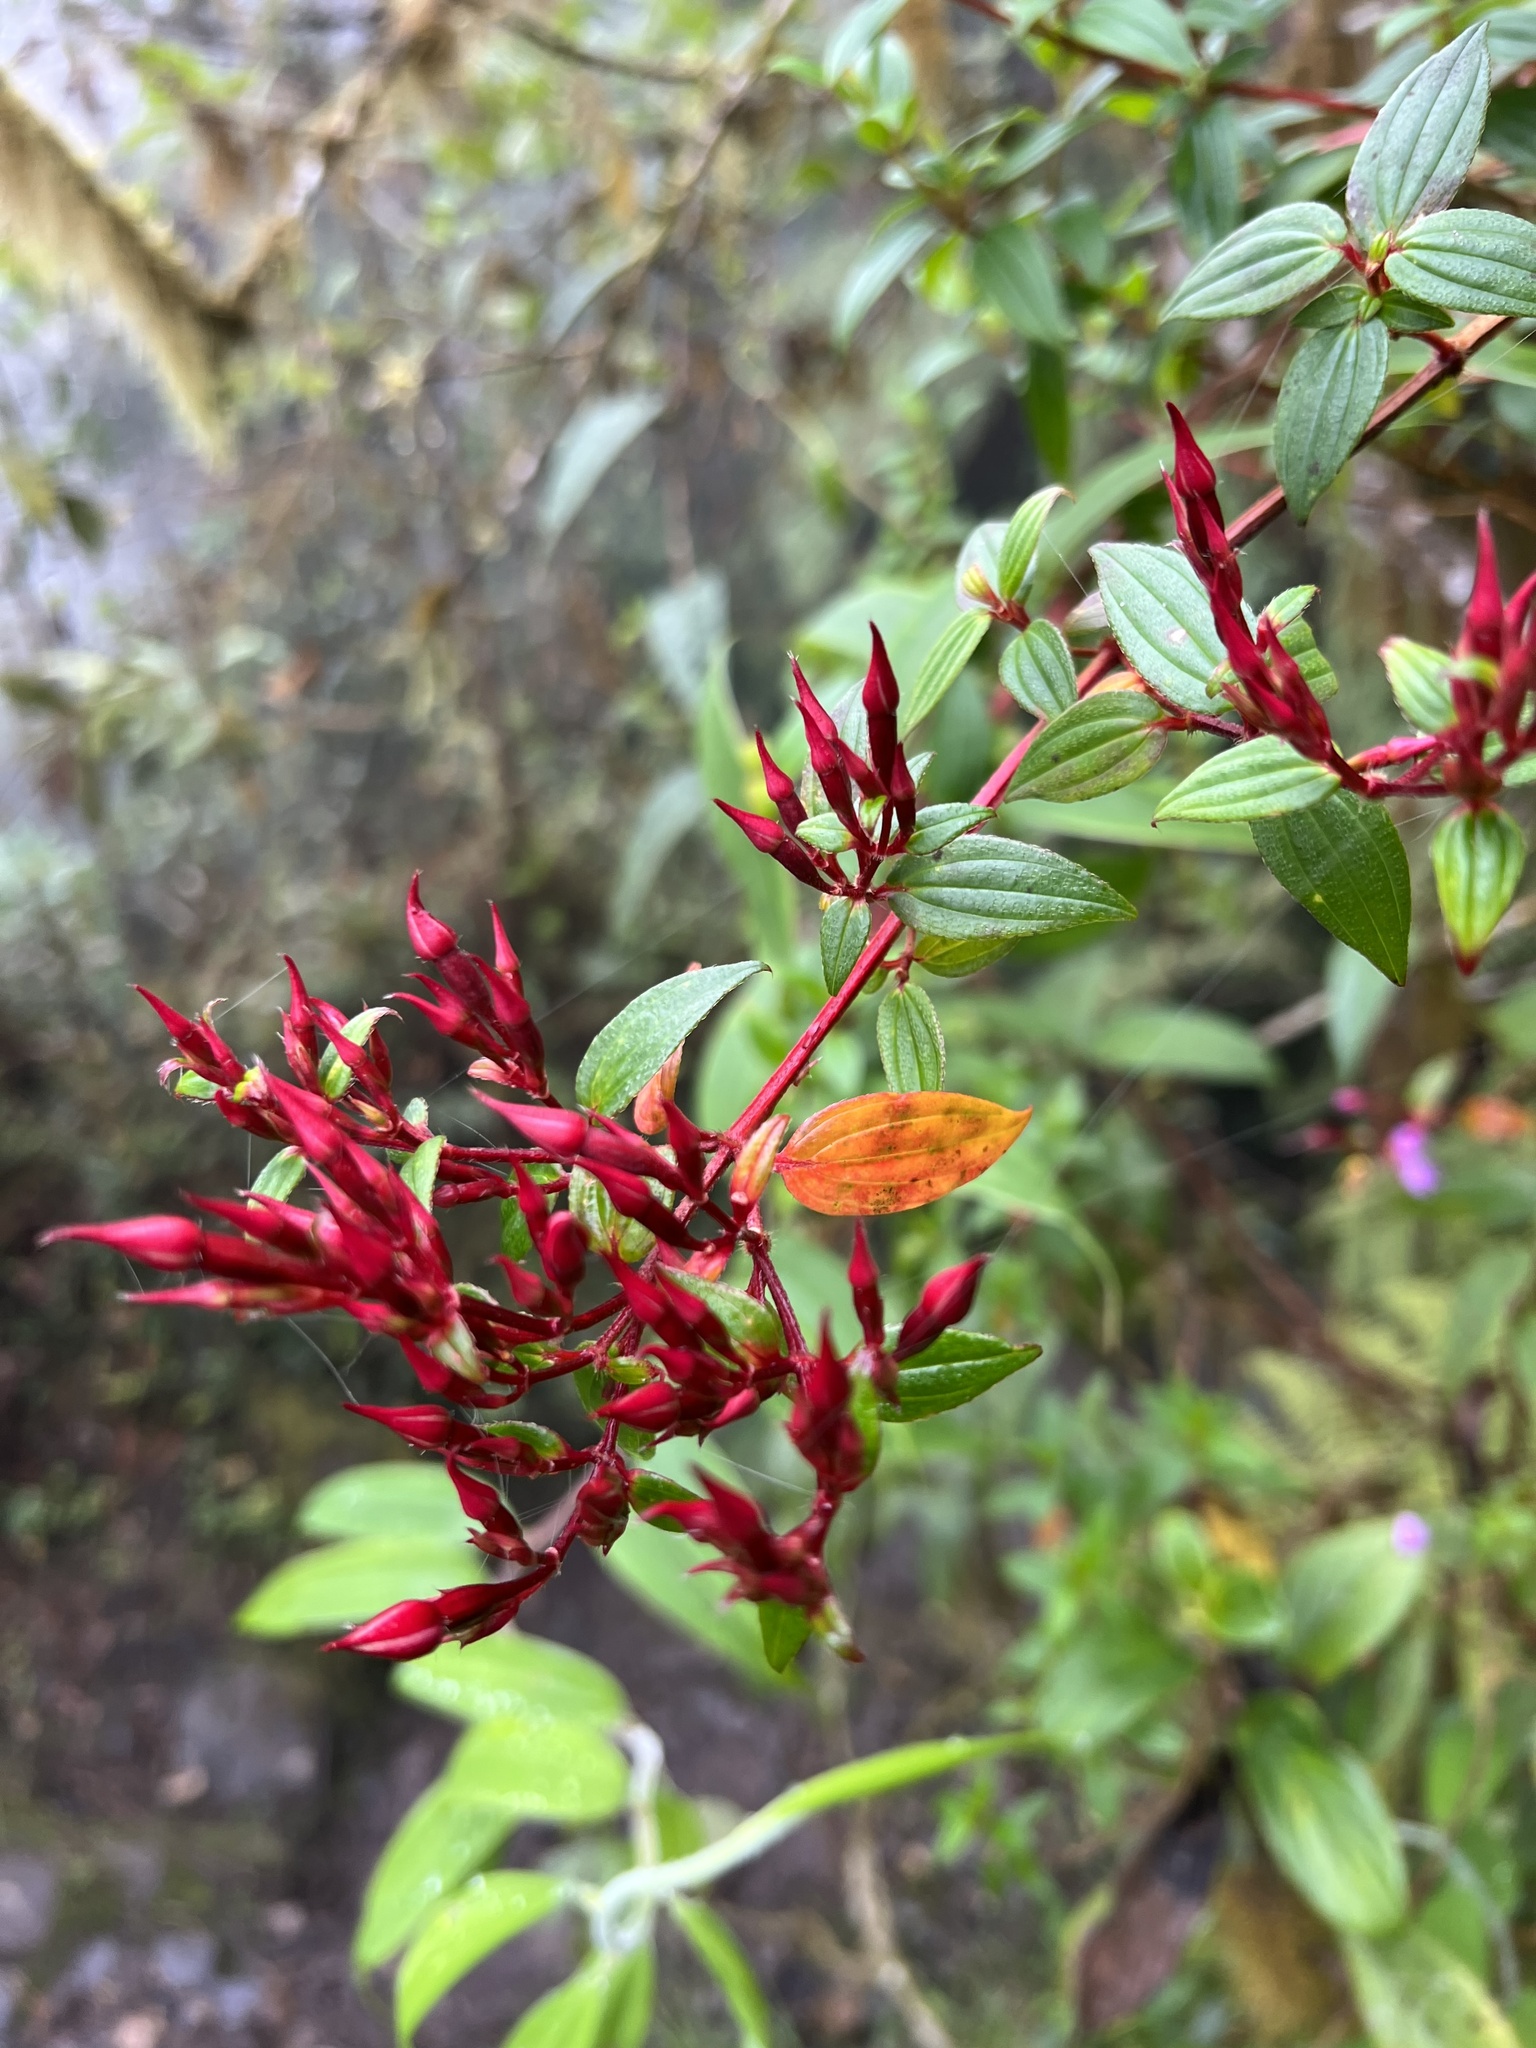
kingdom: Plantae
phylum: Tracheophyta
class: Magnoliopsida
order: Myrtales
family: Melastomataceae
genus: Monochaetum
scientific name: Monochaetum meridense
